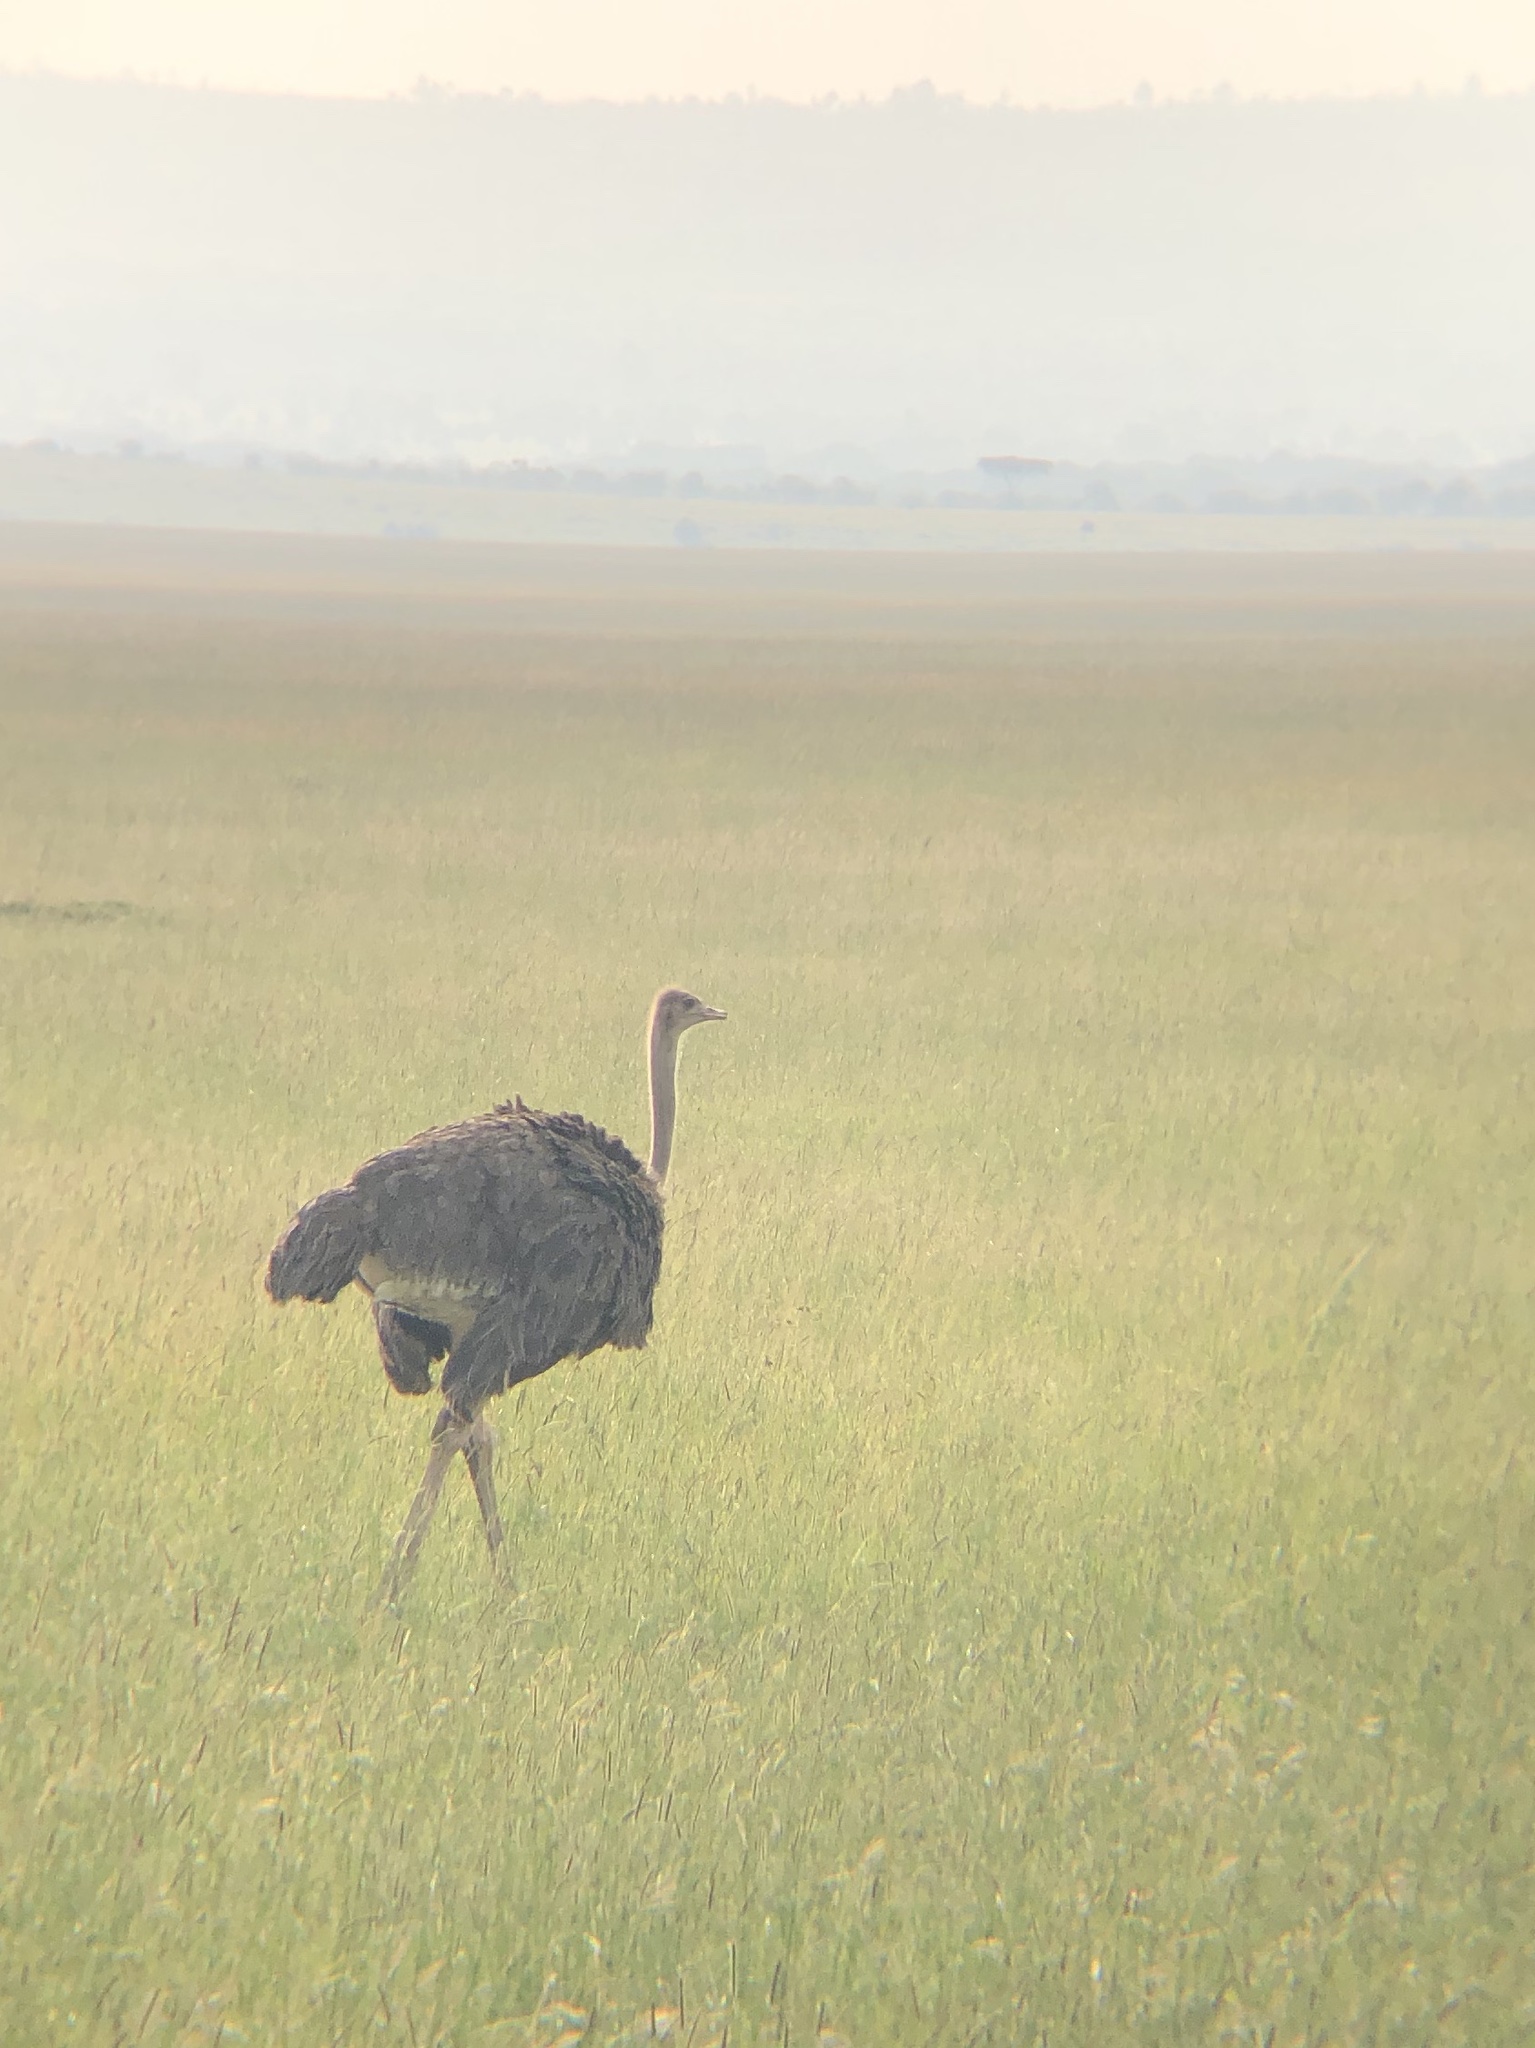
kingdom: Animalia
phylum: Chordata
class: Aves
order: Struthioniformes
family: Struthionidae
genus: Struthio
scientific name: Struthio camelus
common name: Common ostrich
